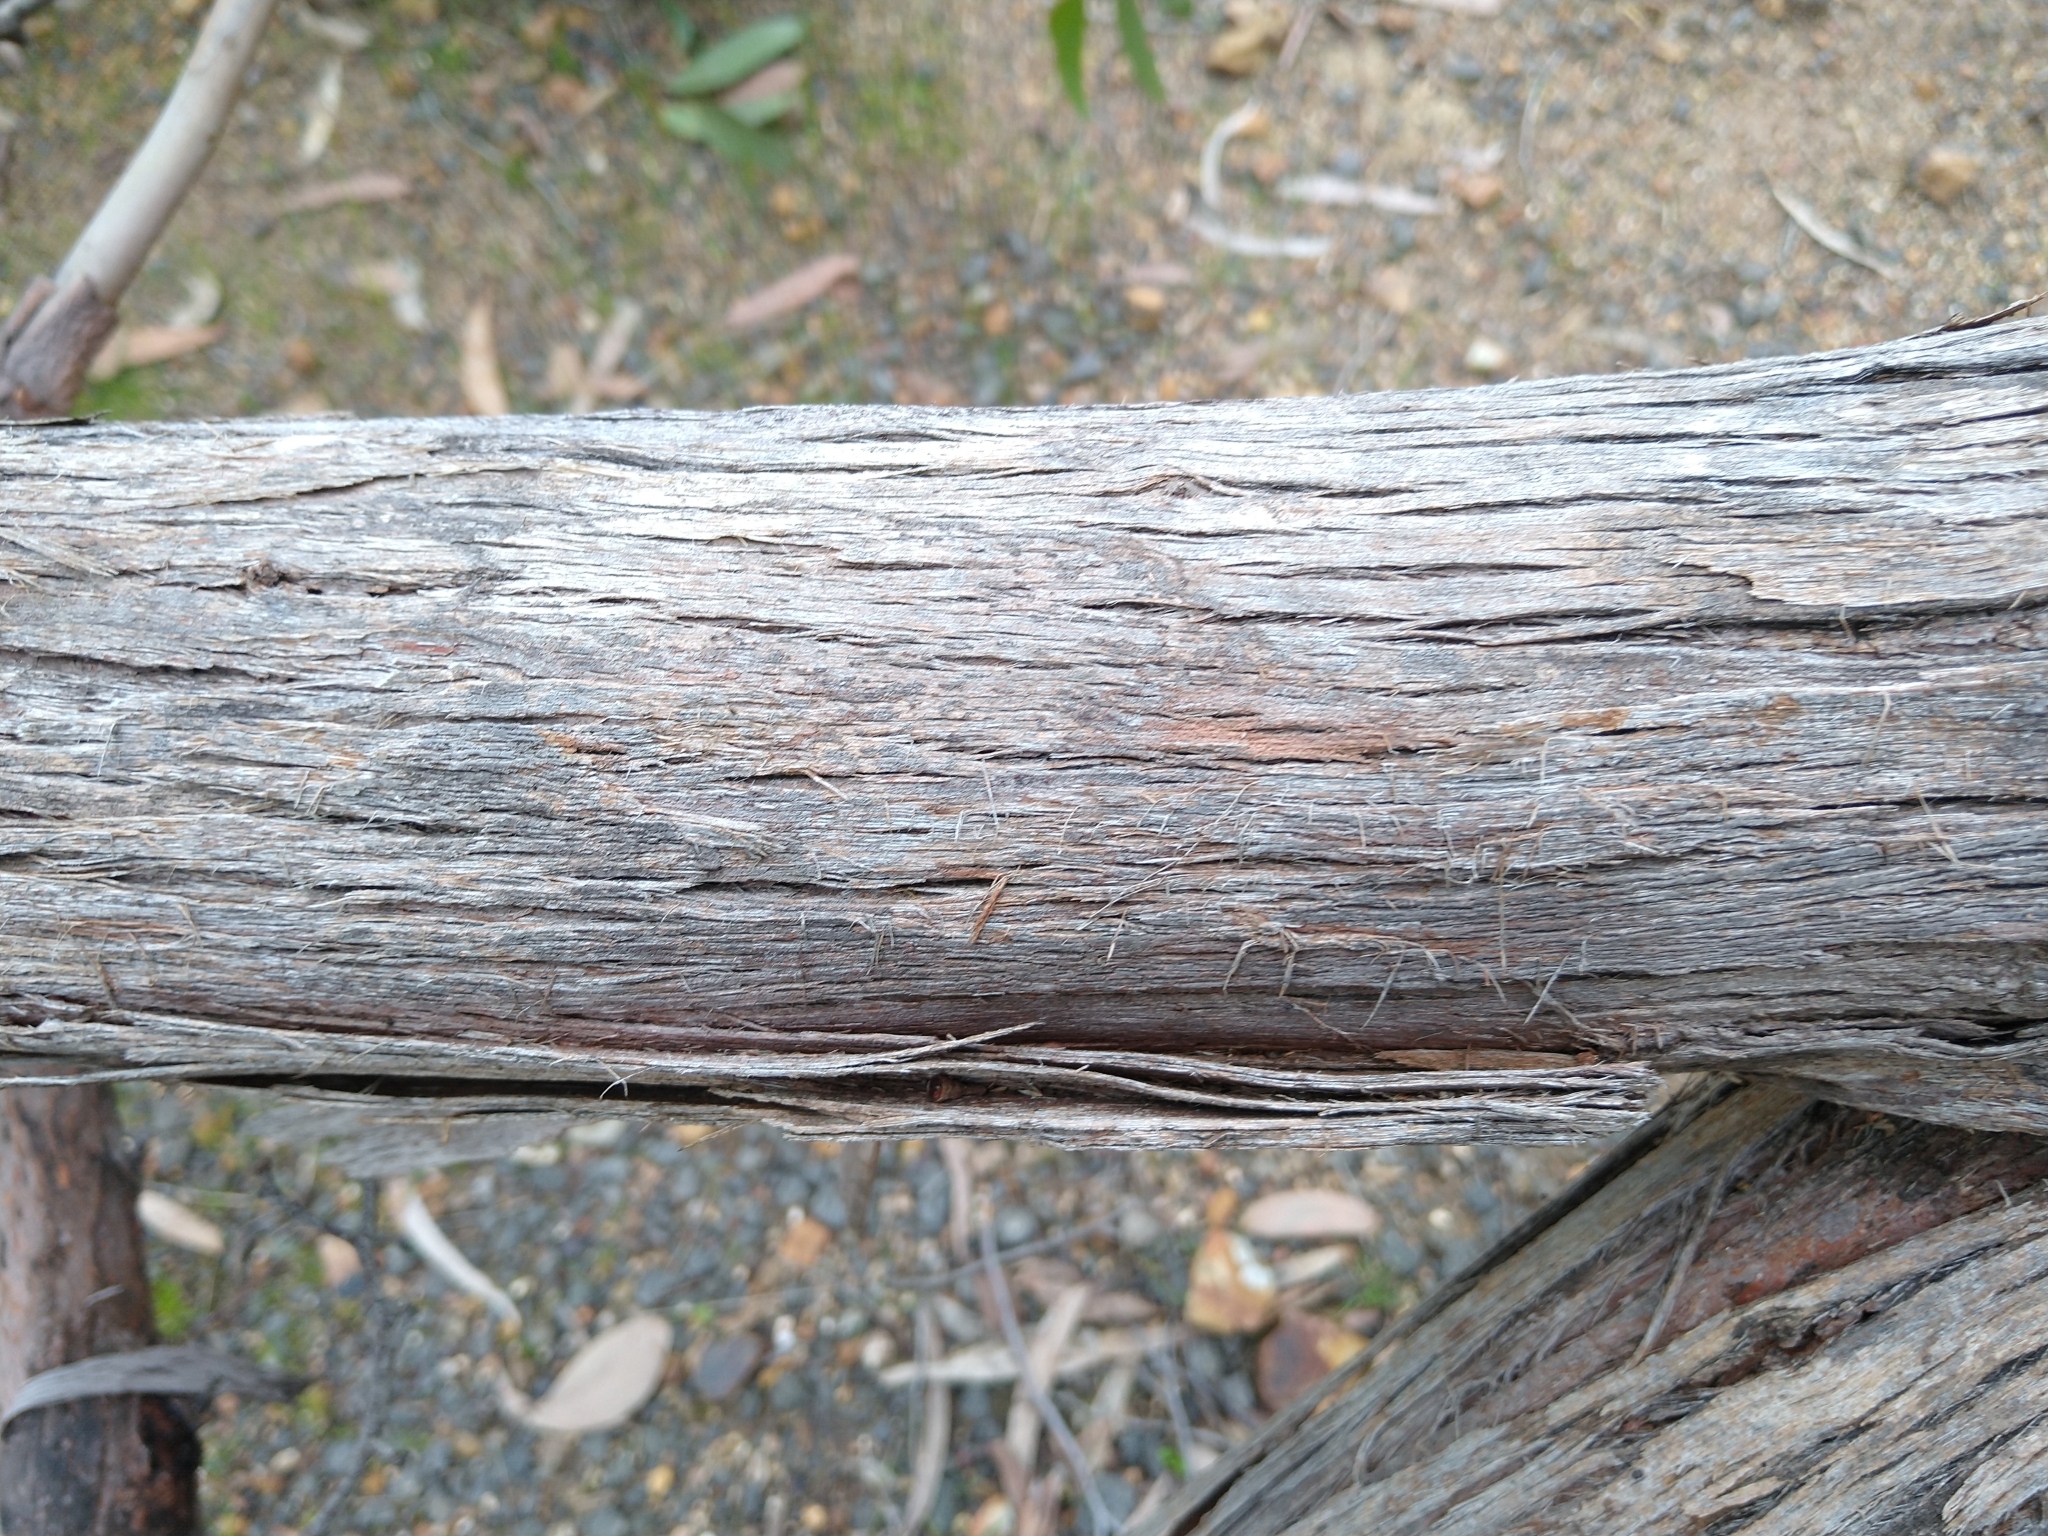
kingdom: Plantae
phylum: Tracheophyta
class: Magnoliopsida
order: Myrtales
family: Myrtaceae
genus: Eucalyptus
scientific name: Eucalyptus obliqua
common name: Messmate stringybark
